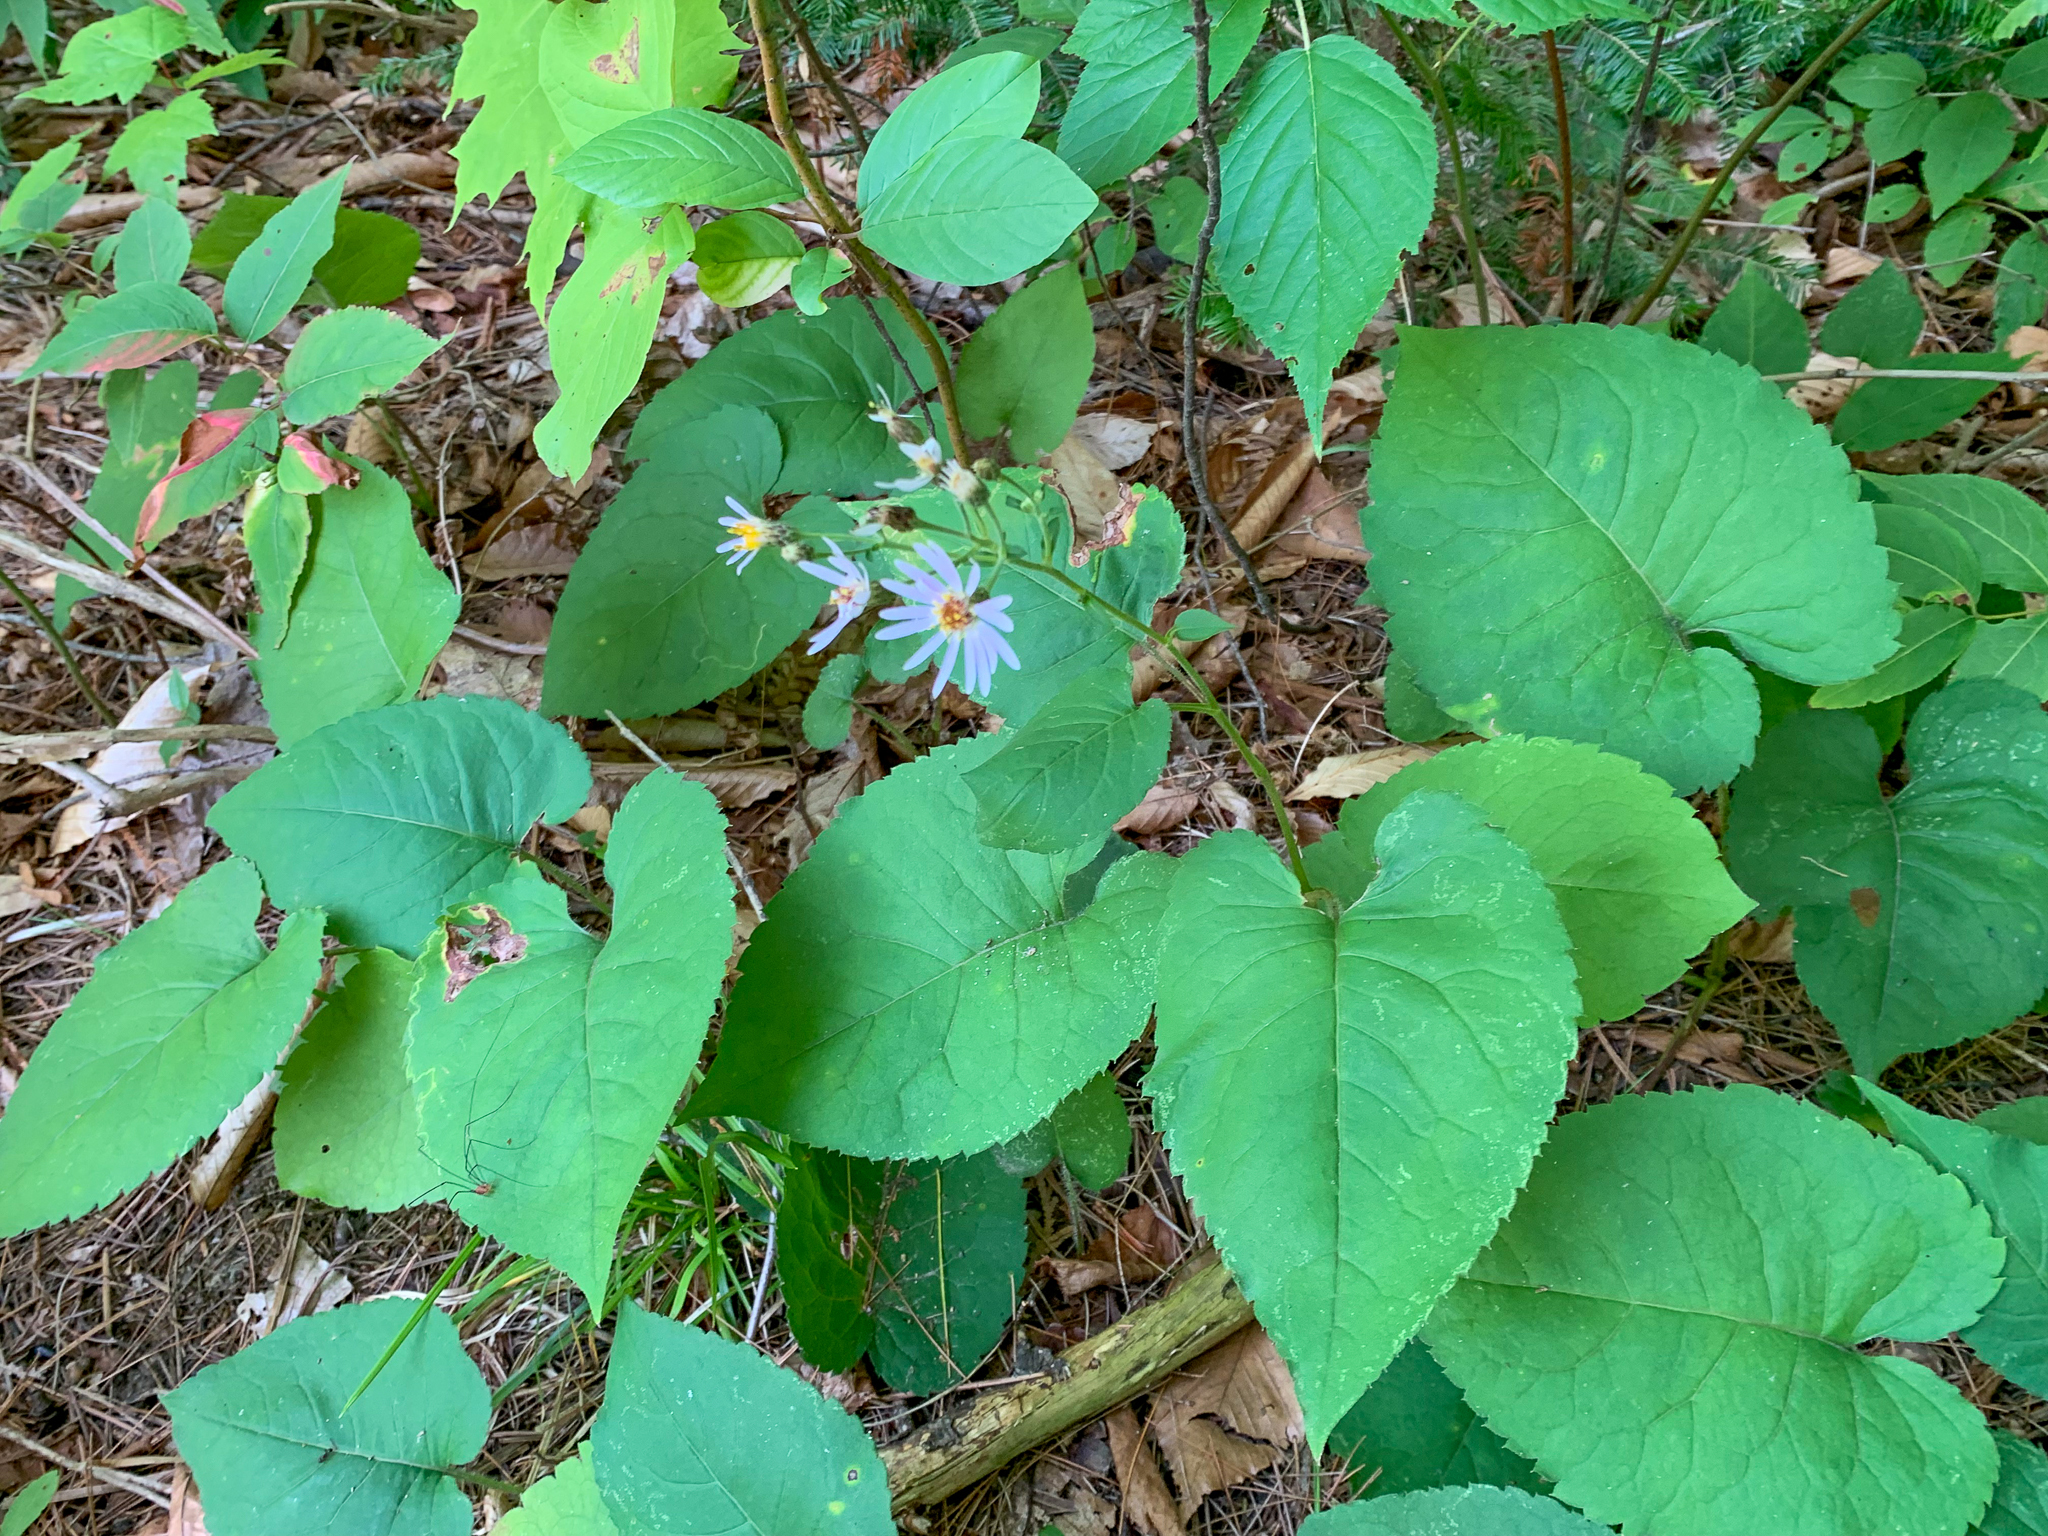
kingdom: Plantae
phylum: Tracheophyta
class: Magnoliopsida
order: Asterales
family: Asteraceae
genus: Eurybia
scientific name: Eurybia macrophylla
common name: Big-leaved aster
